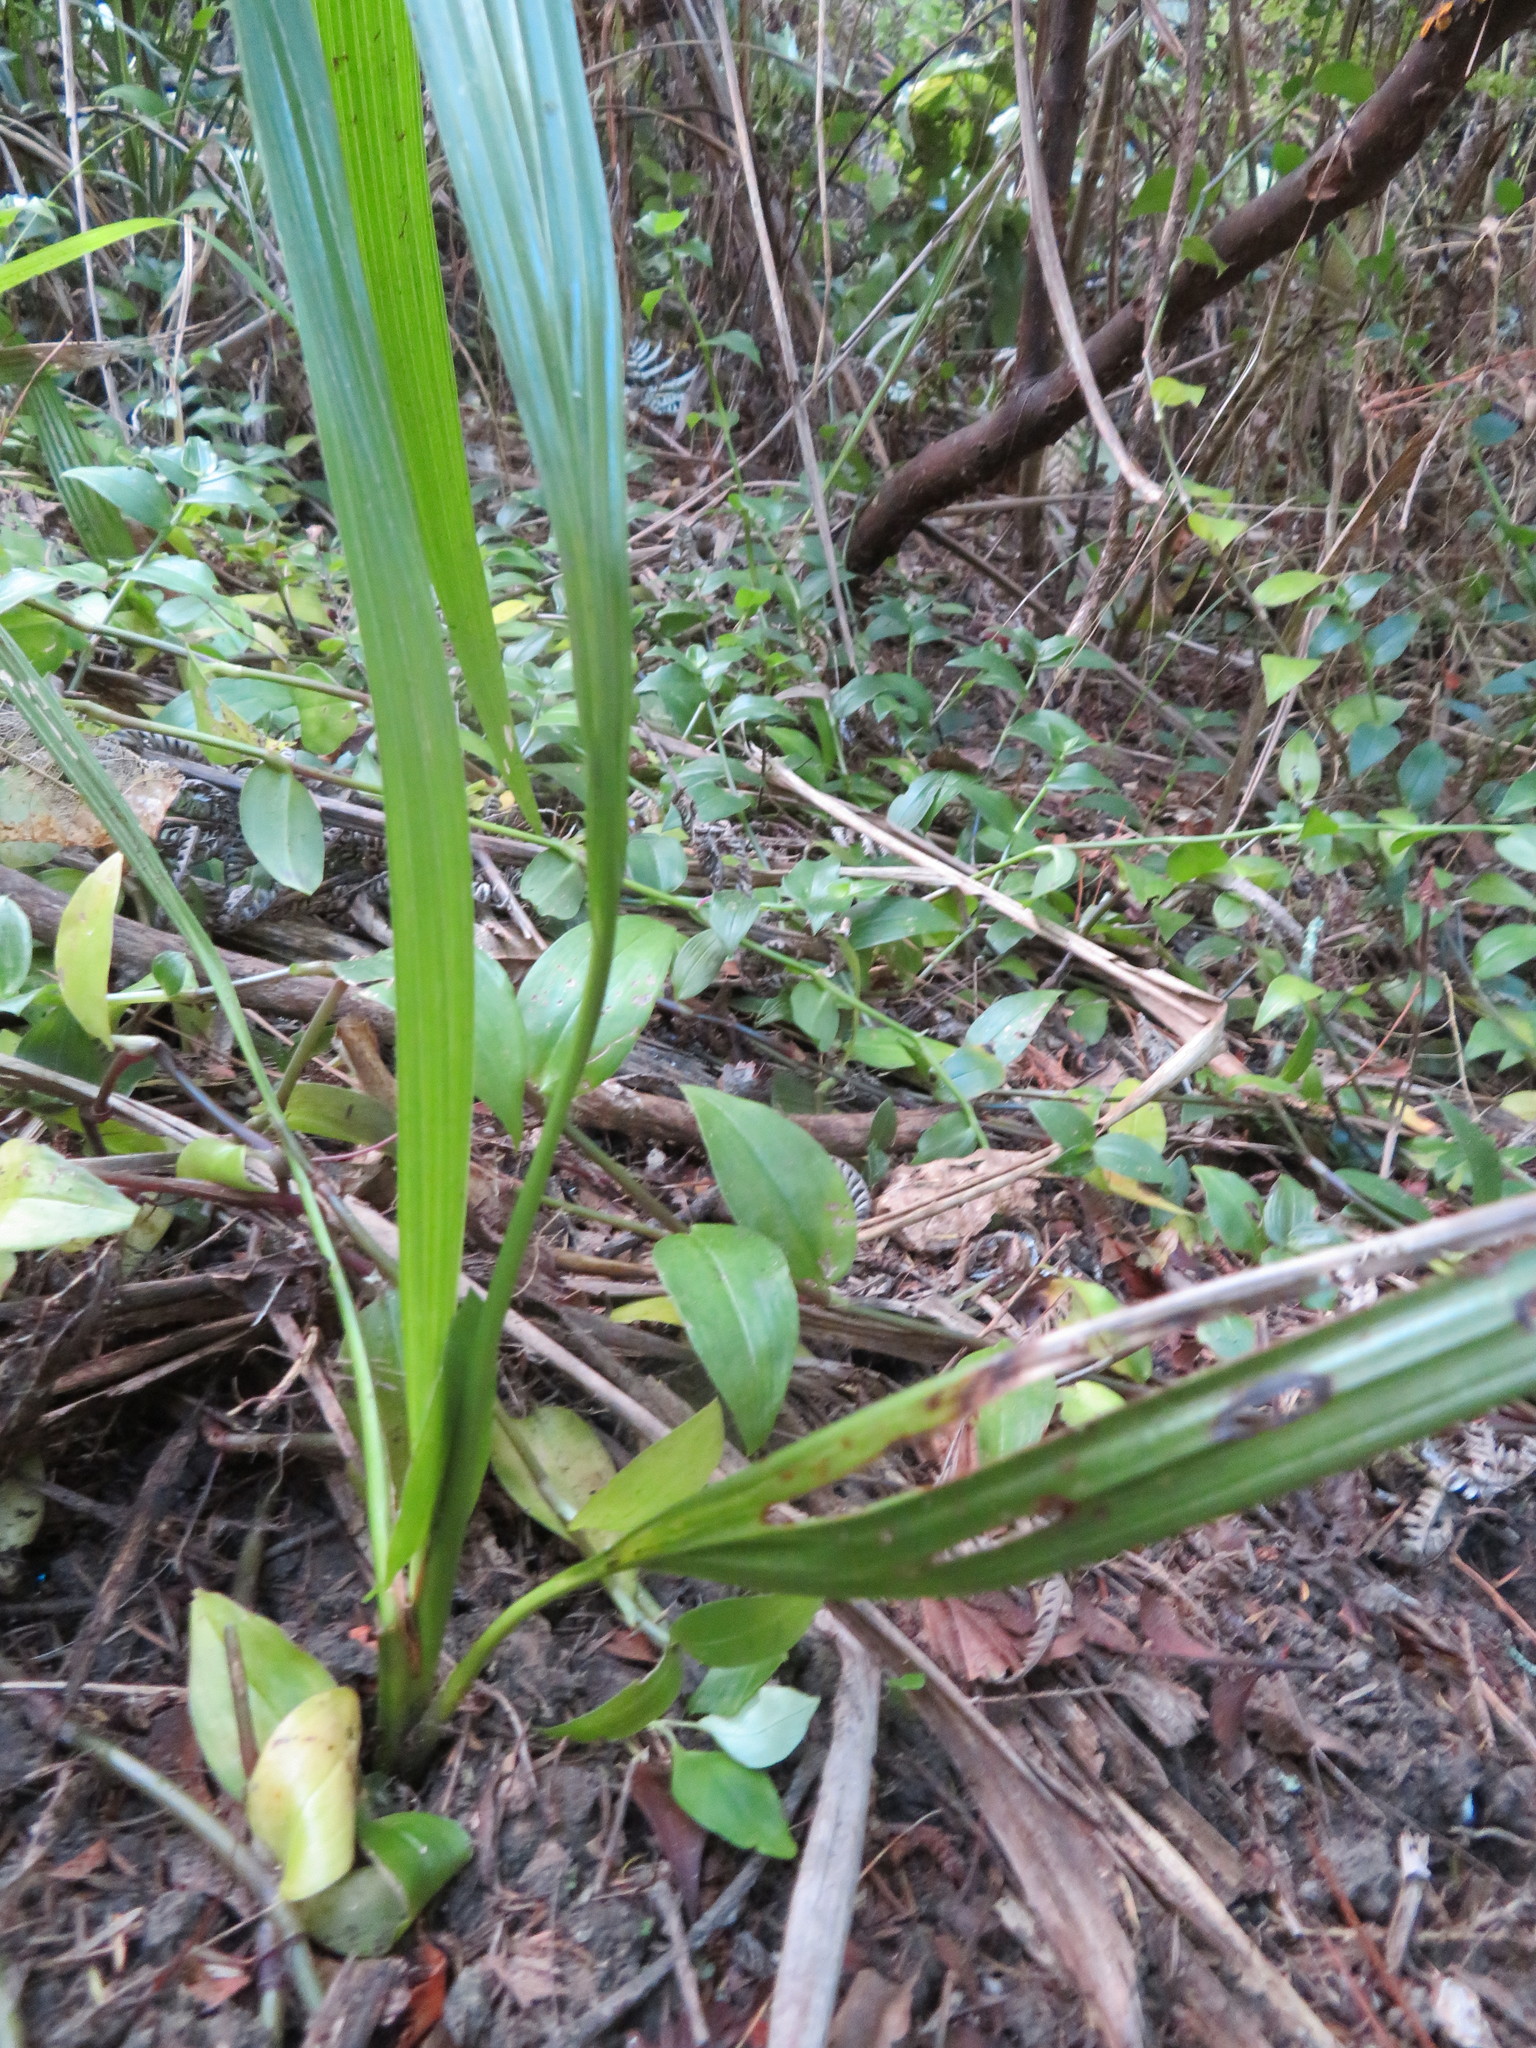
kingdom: Plantae
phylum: Tracheophyta
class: Liliopsida
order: Arecales
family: Arecaceae
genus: Phoenix
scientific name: Phoenix canariensis
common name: Canary island date palm
